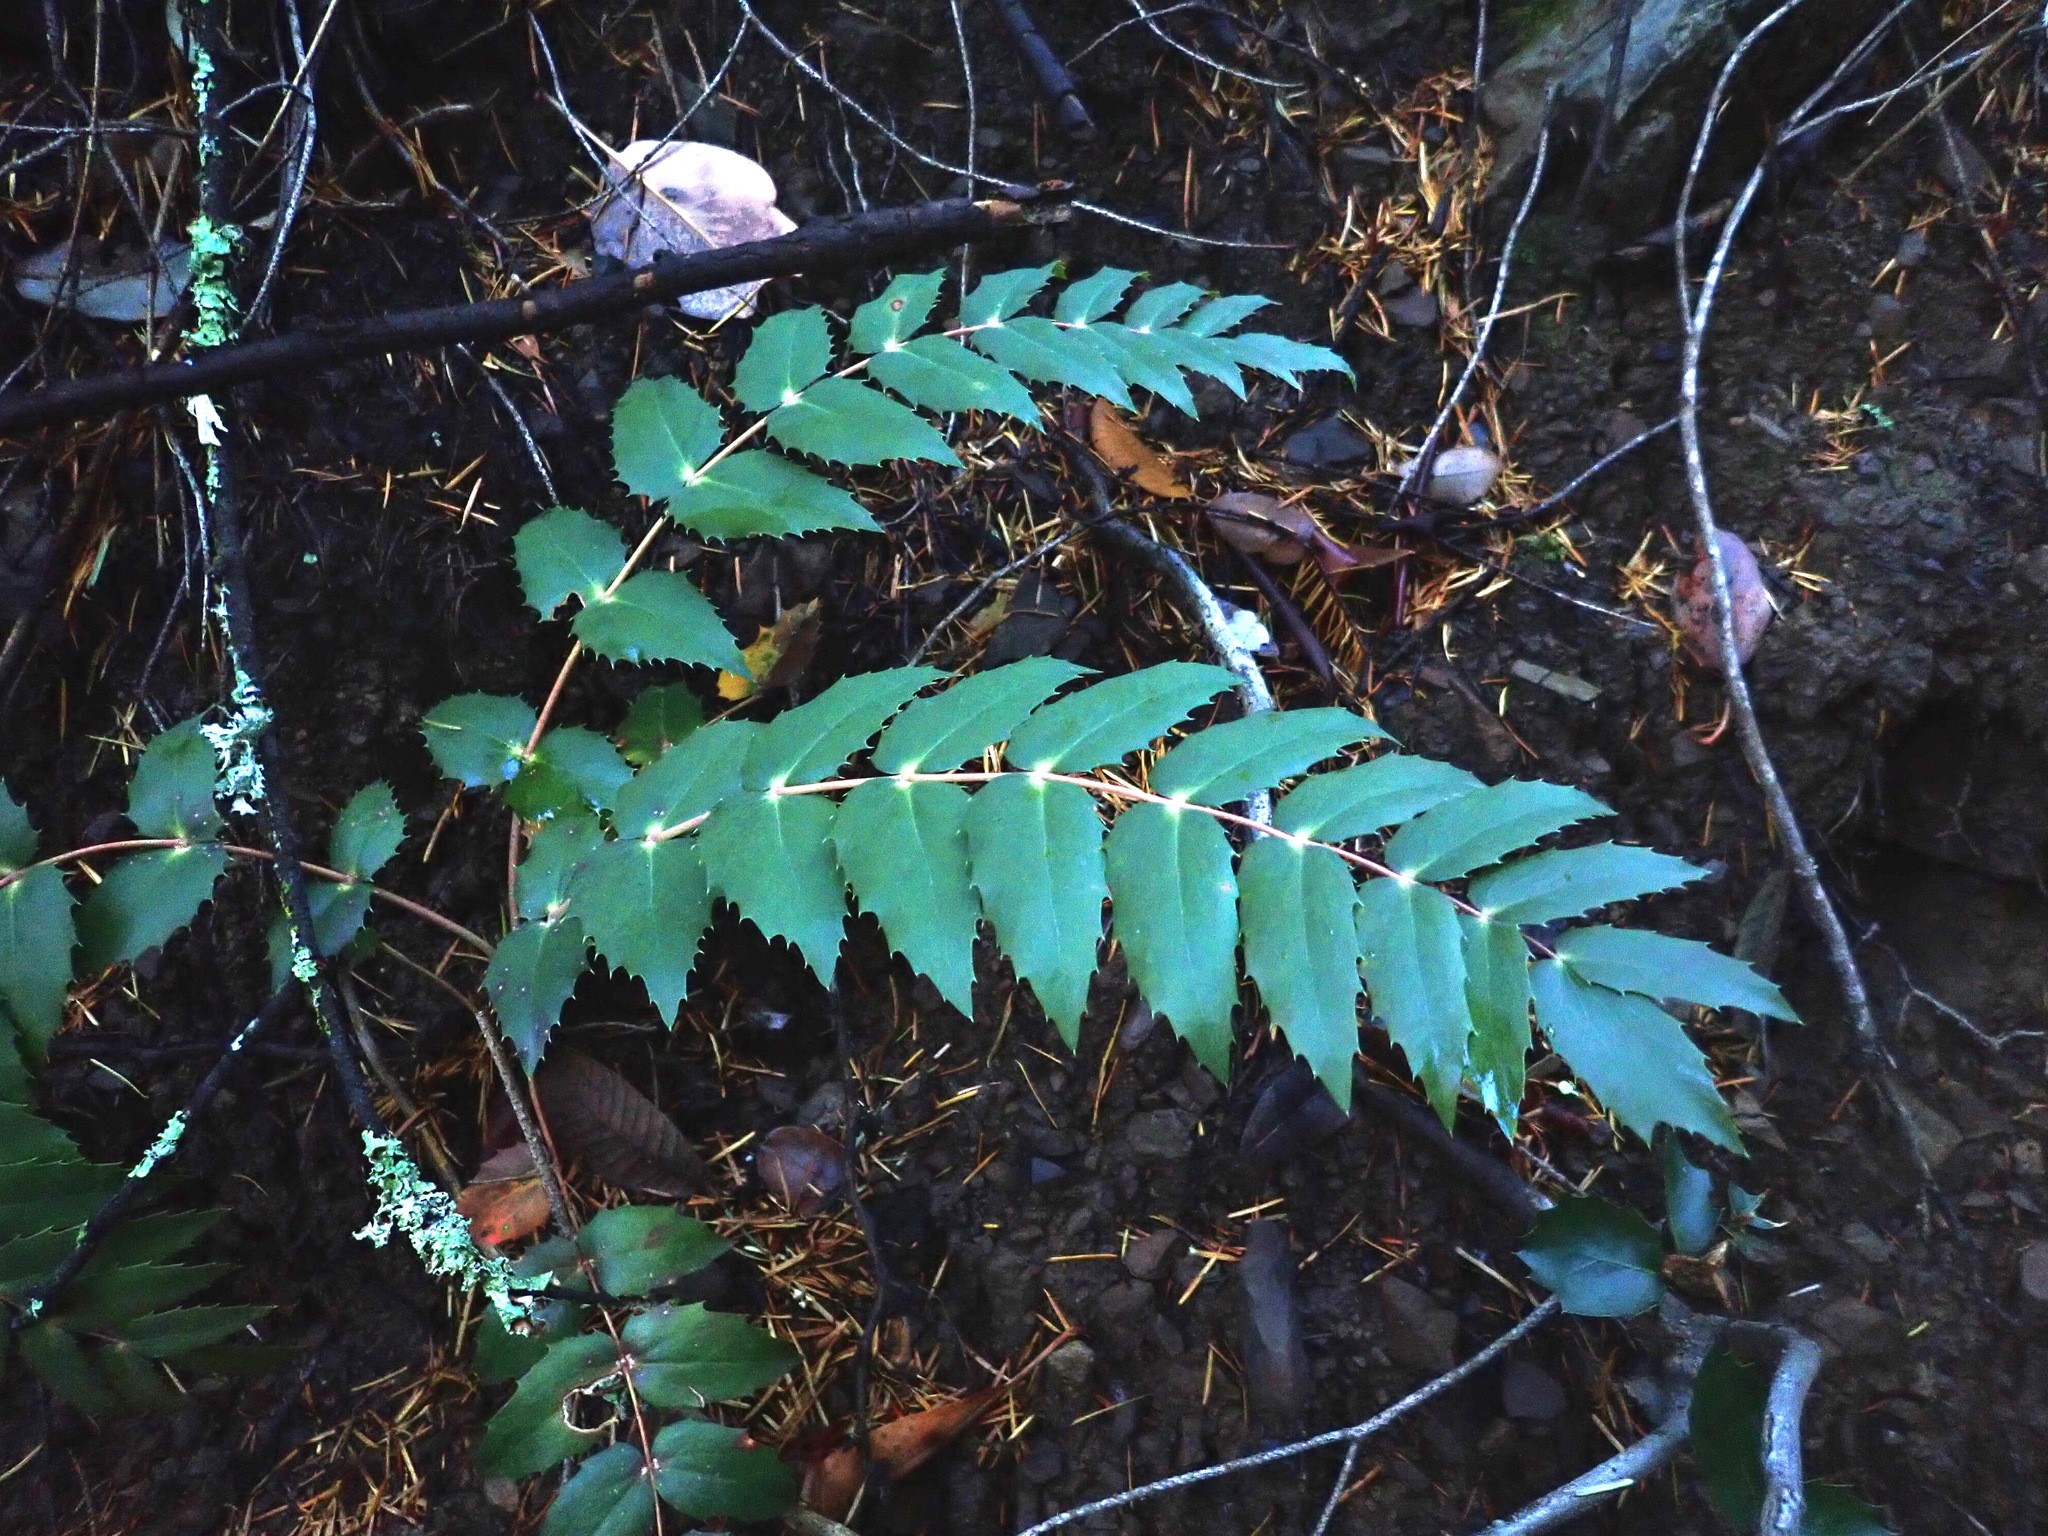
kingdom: Plantae
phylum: Tracheophyta
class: Magnoliopsida
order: Ranunculales
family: Berberidaceae
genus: Mahonia
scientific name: Mahonia nervosa
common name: Cascade oregon-grape
